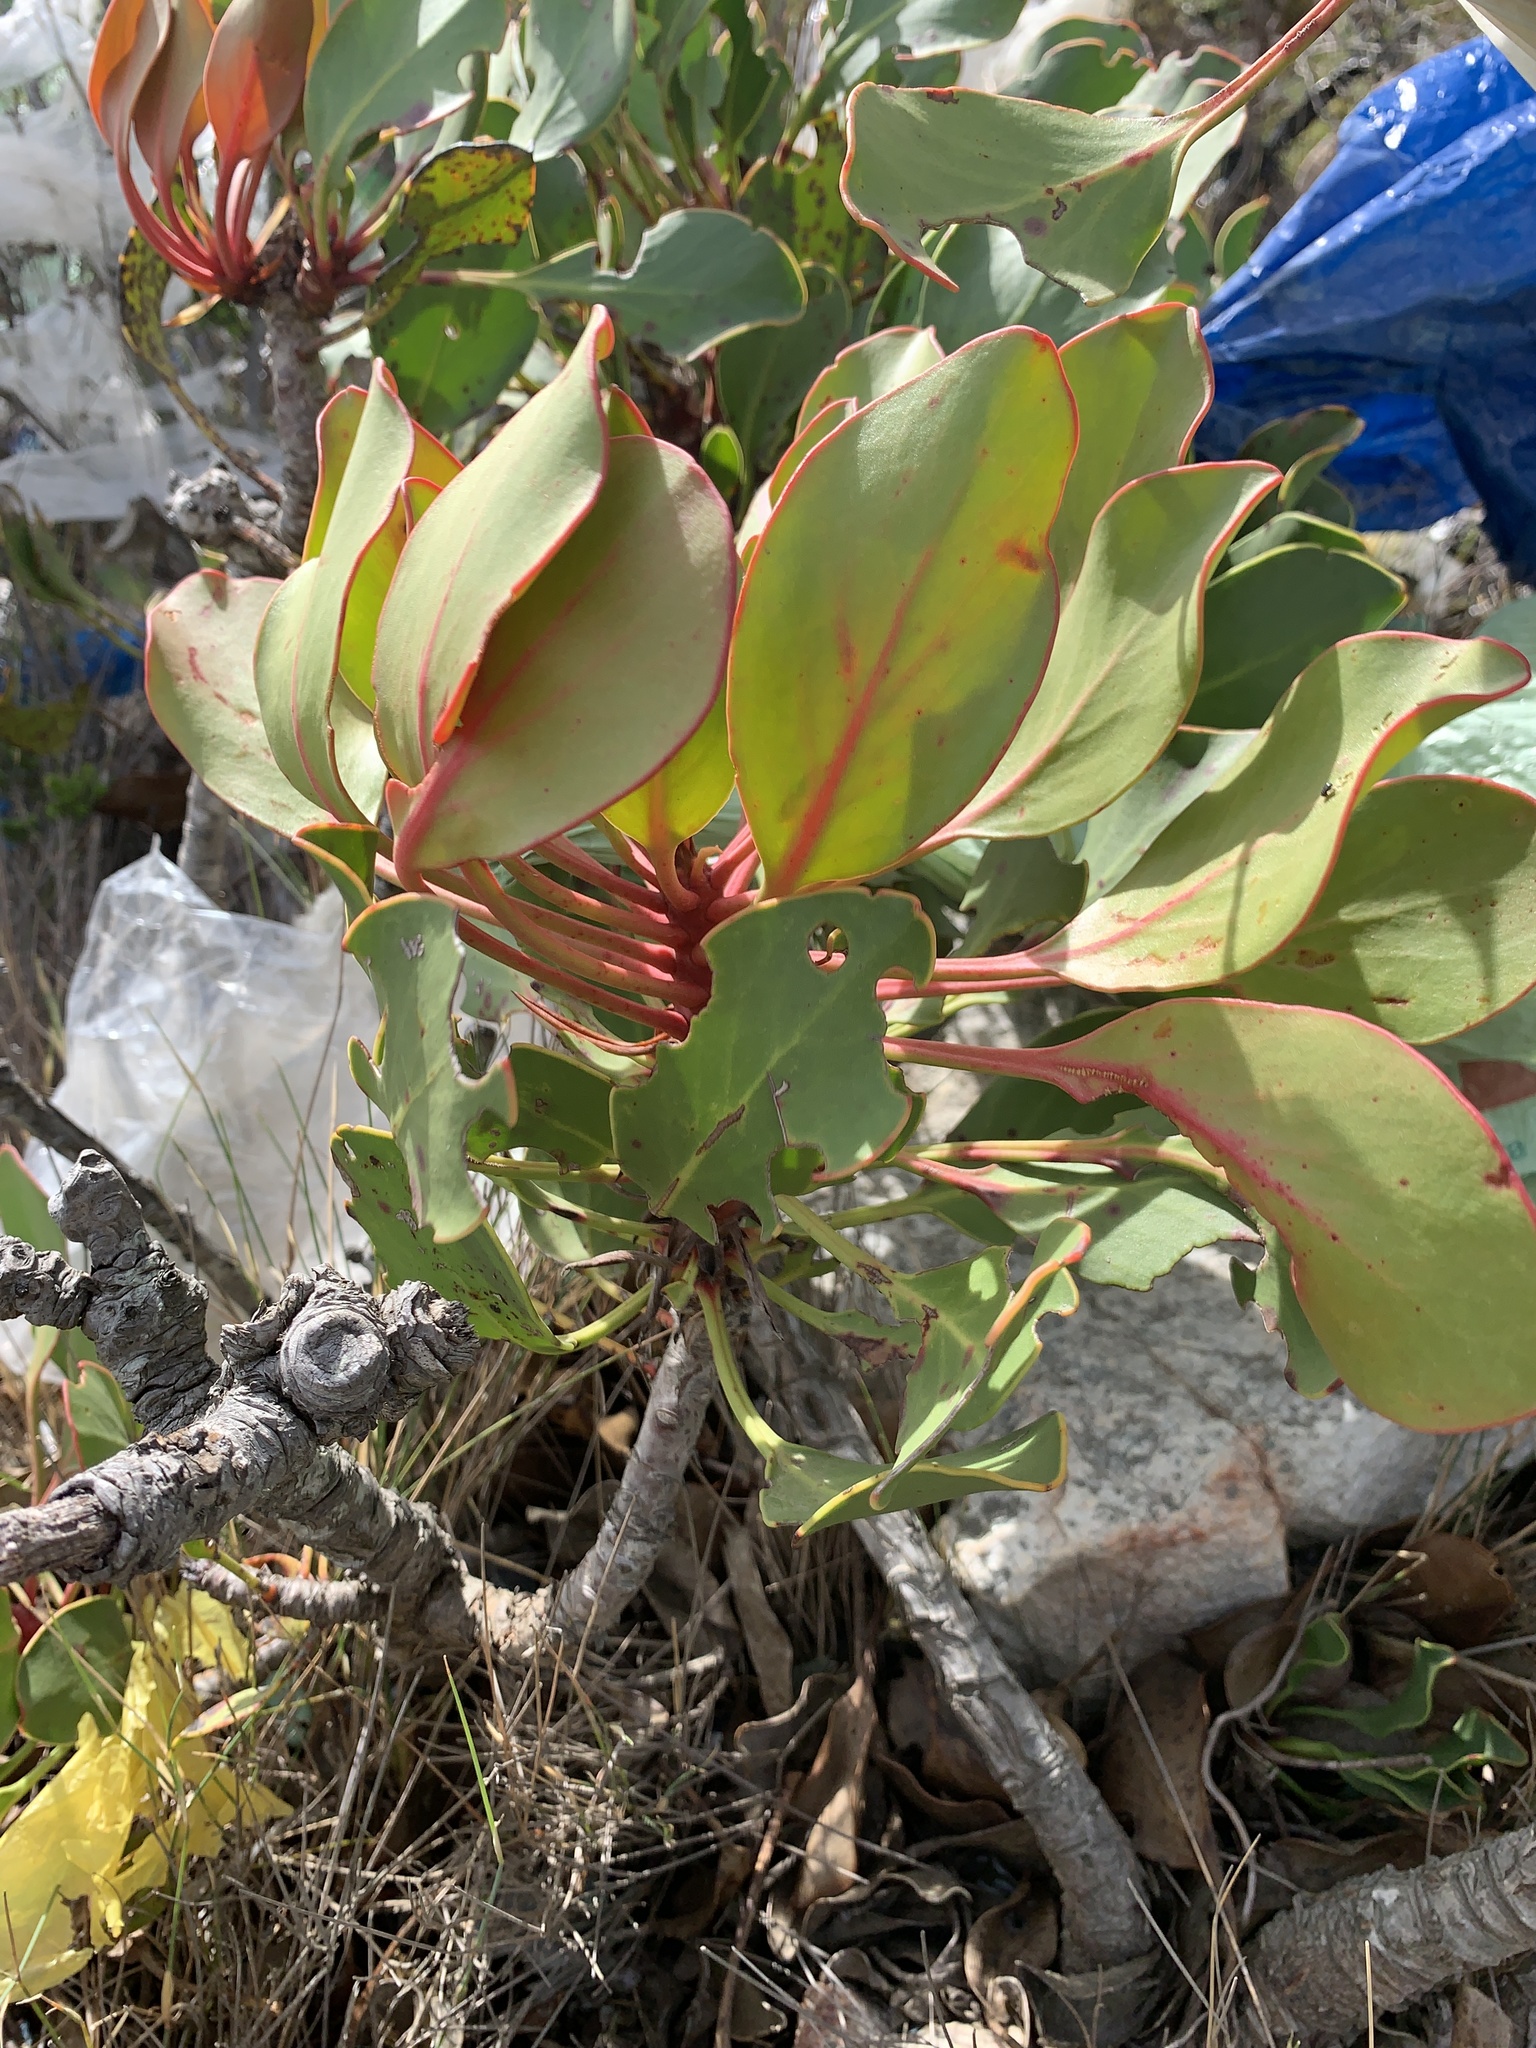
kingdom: Plantae
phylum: Tracheophyta
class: Magnoliopsida
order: Proteales
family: Proteaceae
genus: Protea
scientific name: Protea cynaroides
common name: King protea
